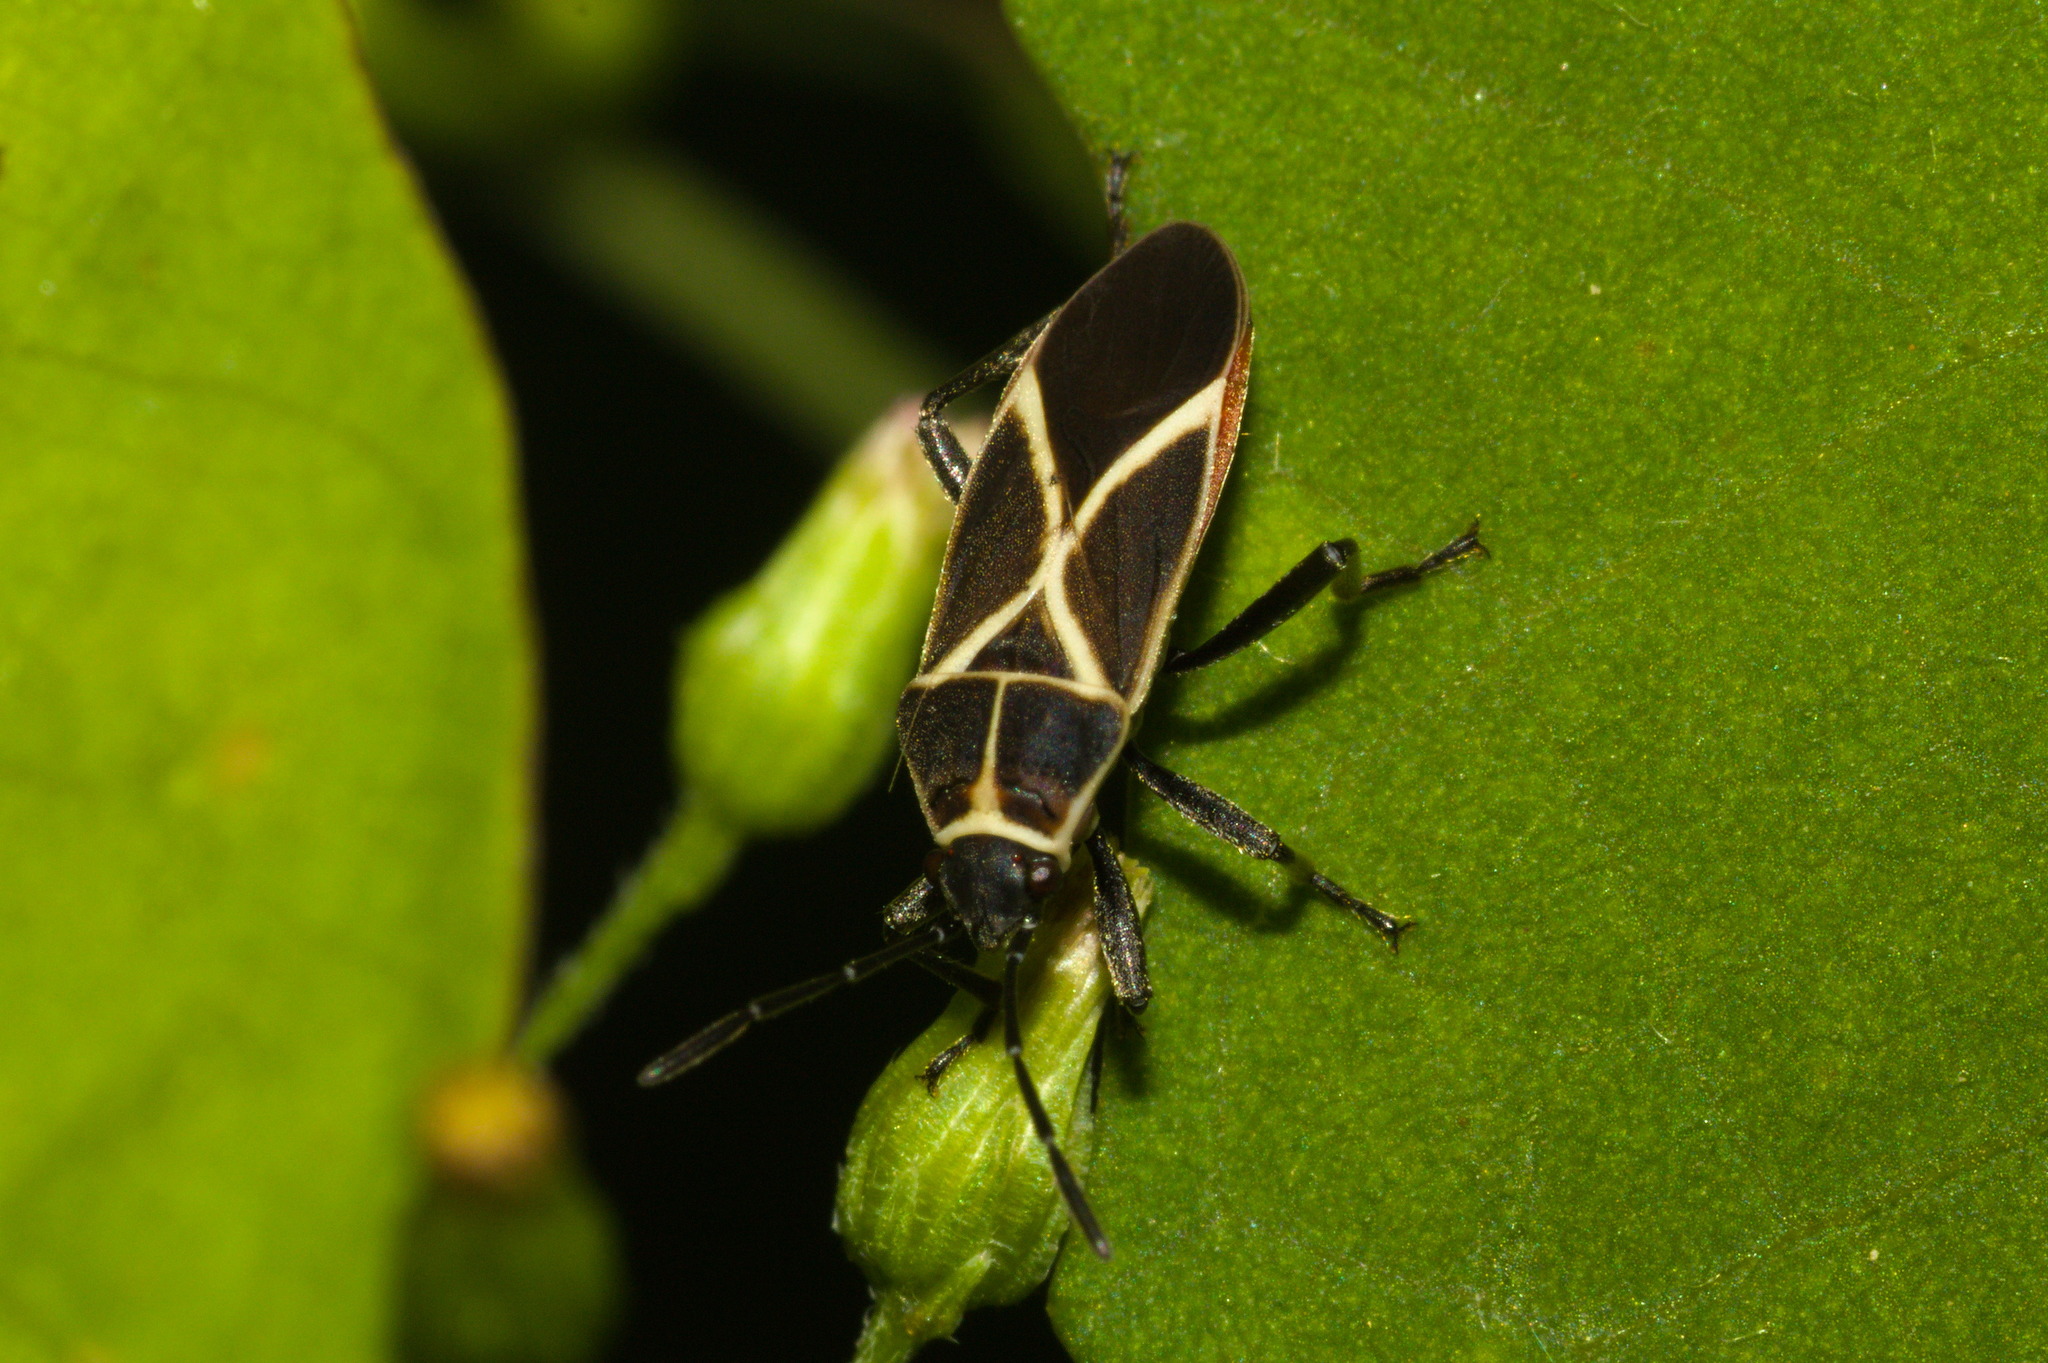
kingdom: Animalia
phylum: Arthropoda
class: Insecta
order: Hemiptera
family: Lygaeidae
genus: Craspeduchus
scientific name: Craspeduchus xanthostaurus
